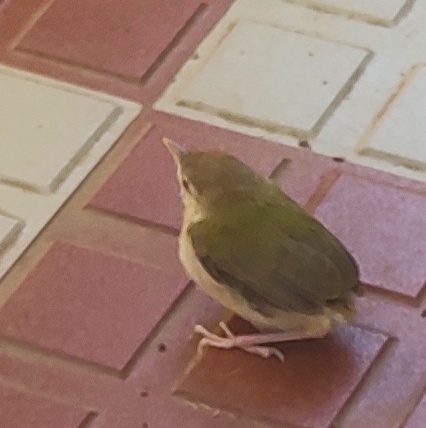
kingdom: Animalia
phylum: Chordata
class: Aves
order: Passeriformes
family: Cisticolidae
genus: Orthotomus
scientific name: Orthotomus sutorius
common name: Common tailorbird
